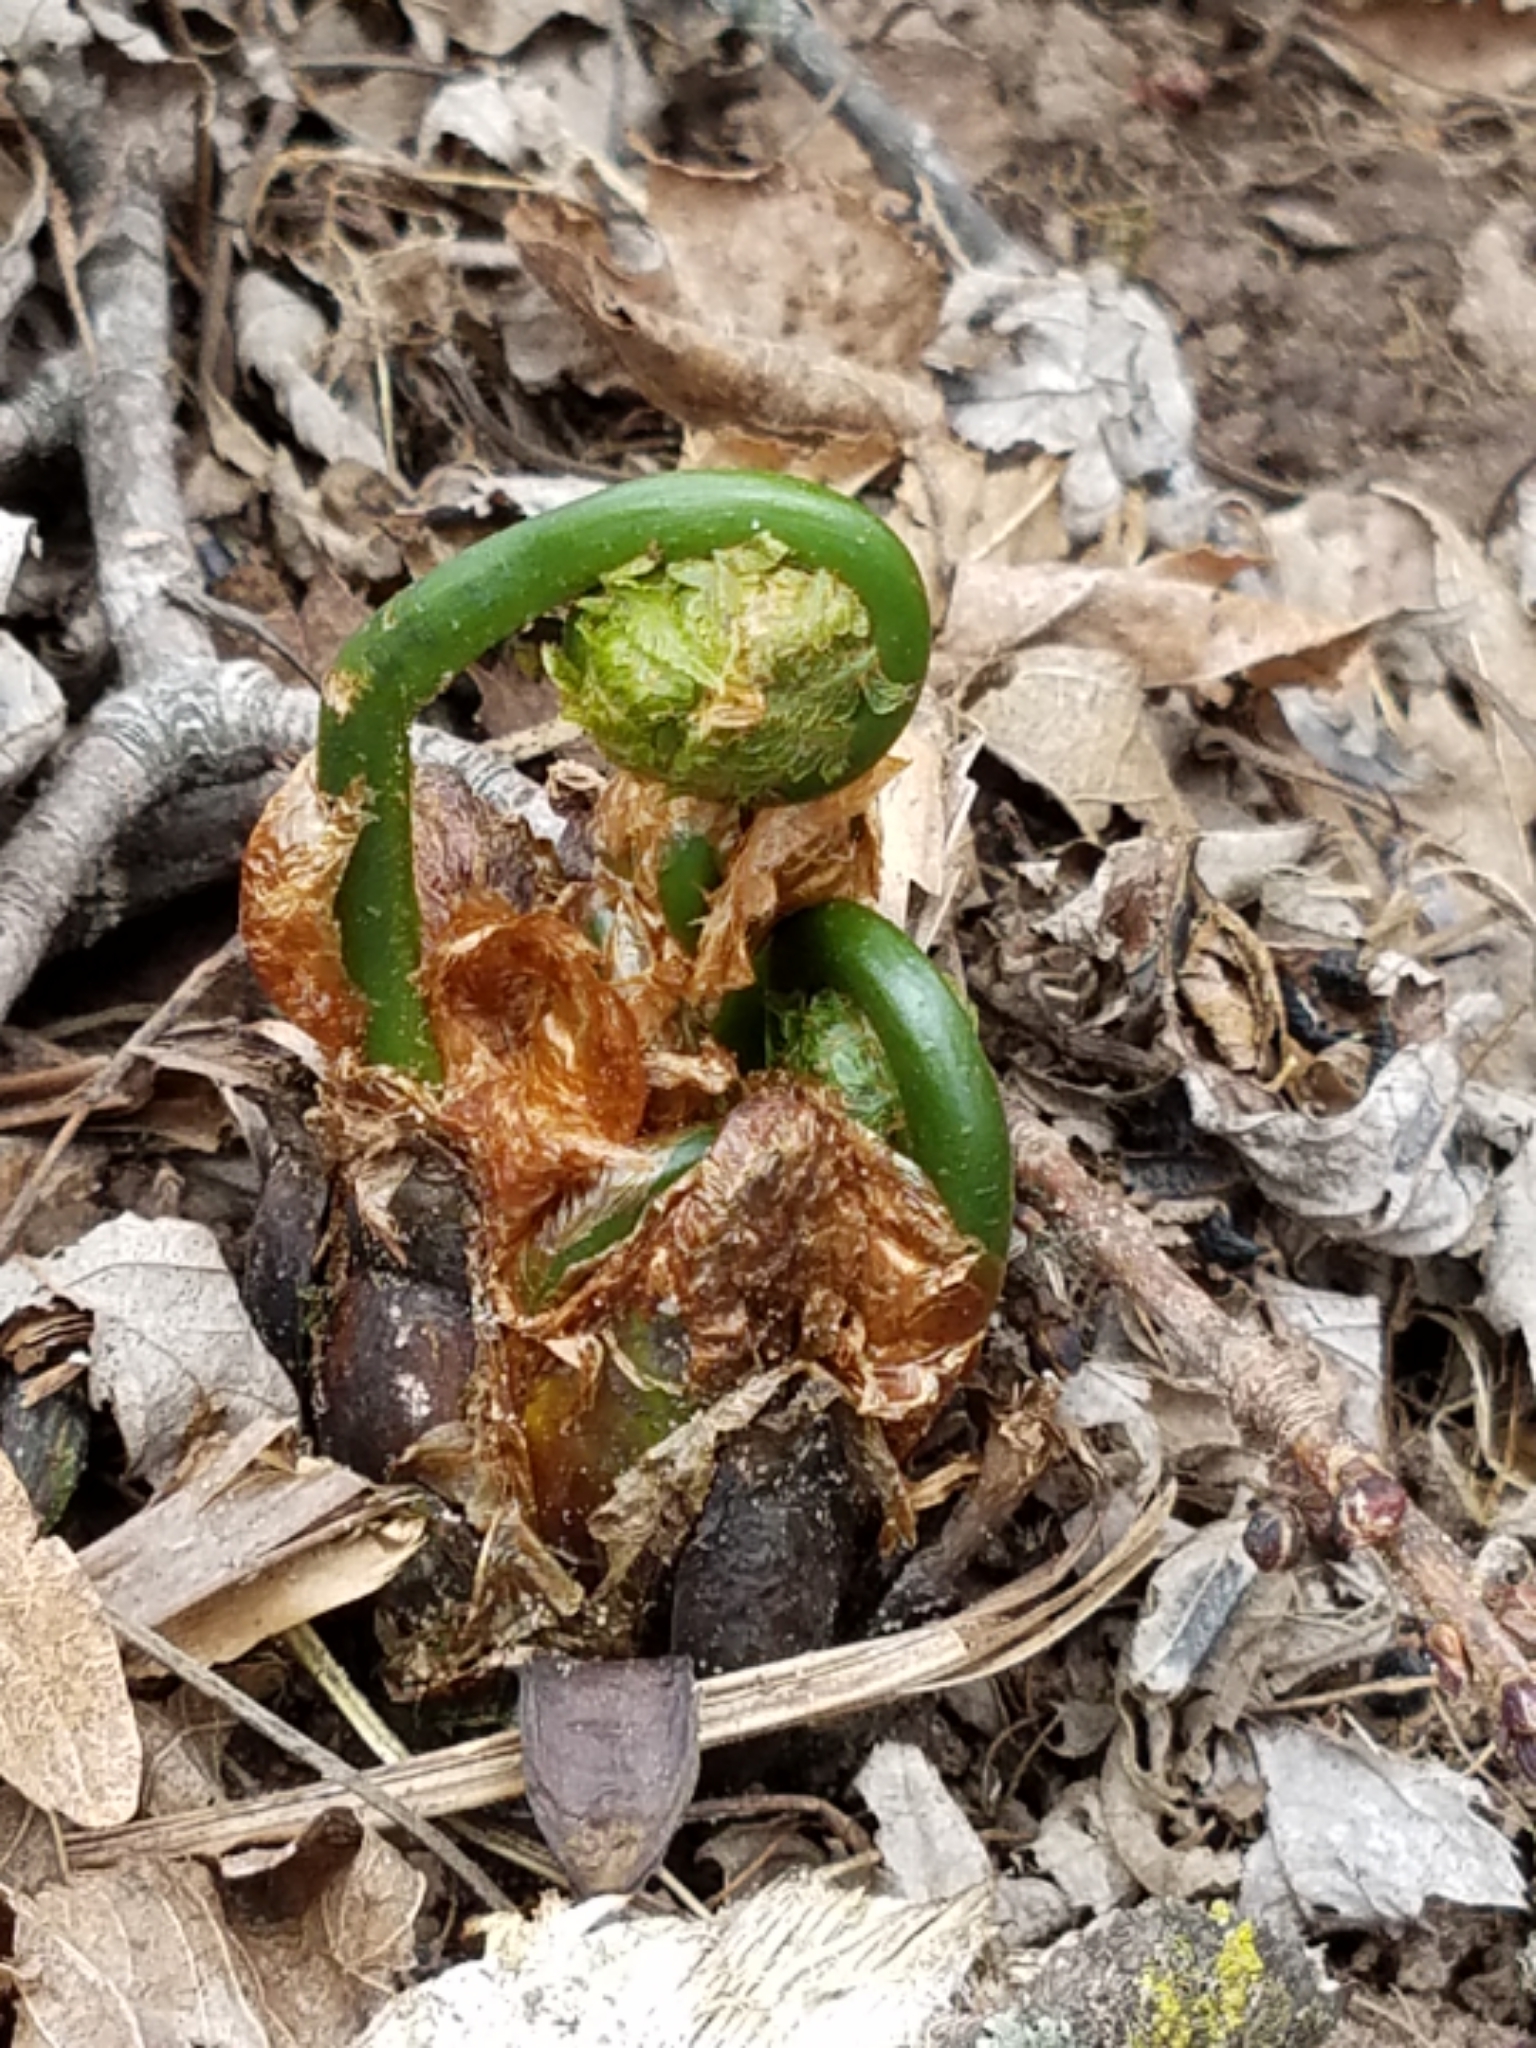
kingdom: Plantae
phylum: Tracheophyta
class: Polypodiopsida
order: Polypodiales
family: Onocleaceae
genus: Matteuccia
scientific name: Matteuccia struthiopteris
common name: Ostrich fern
